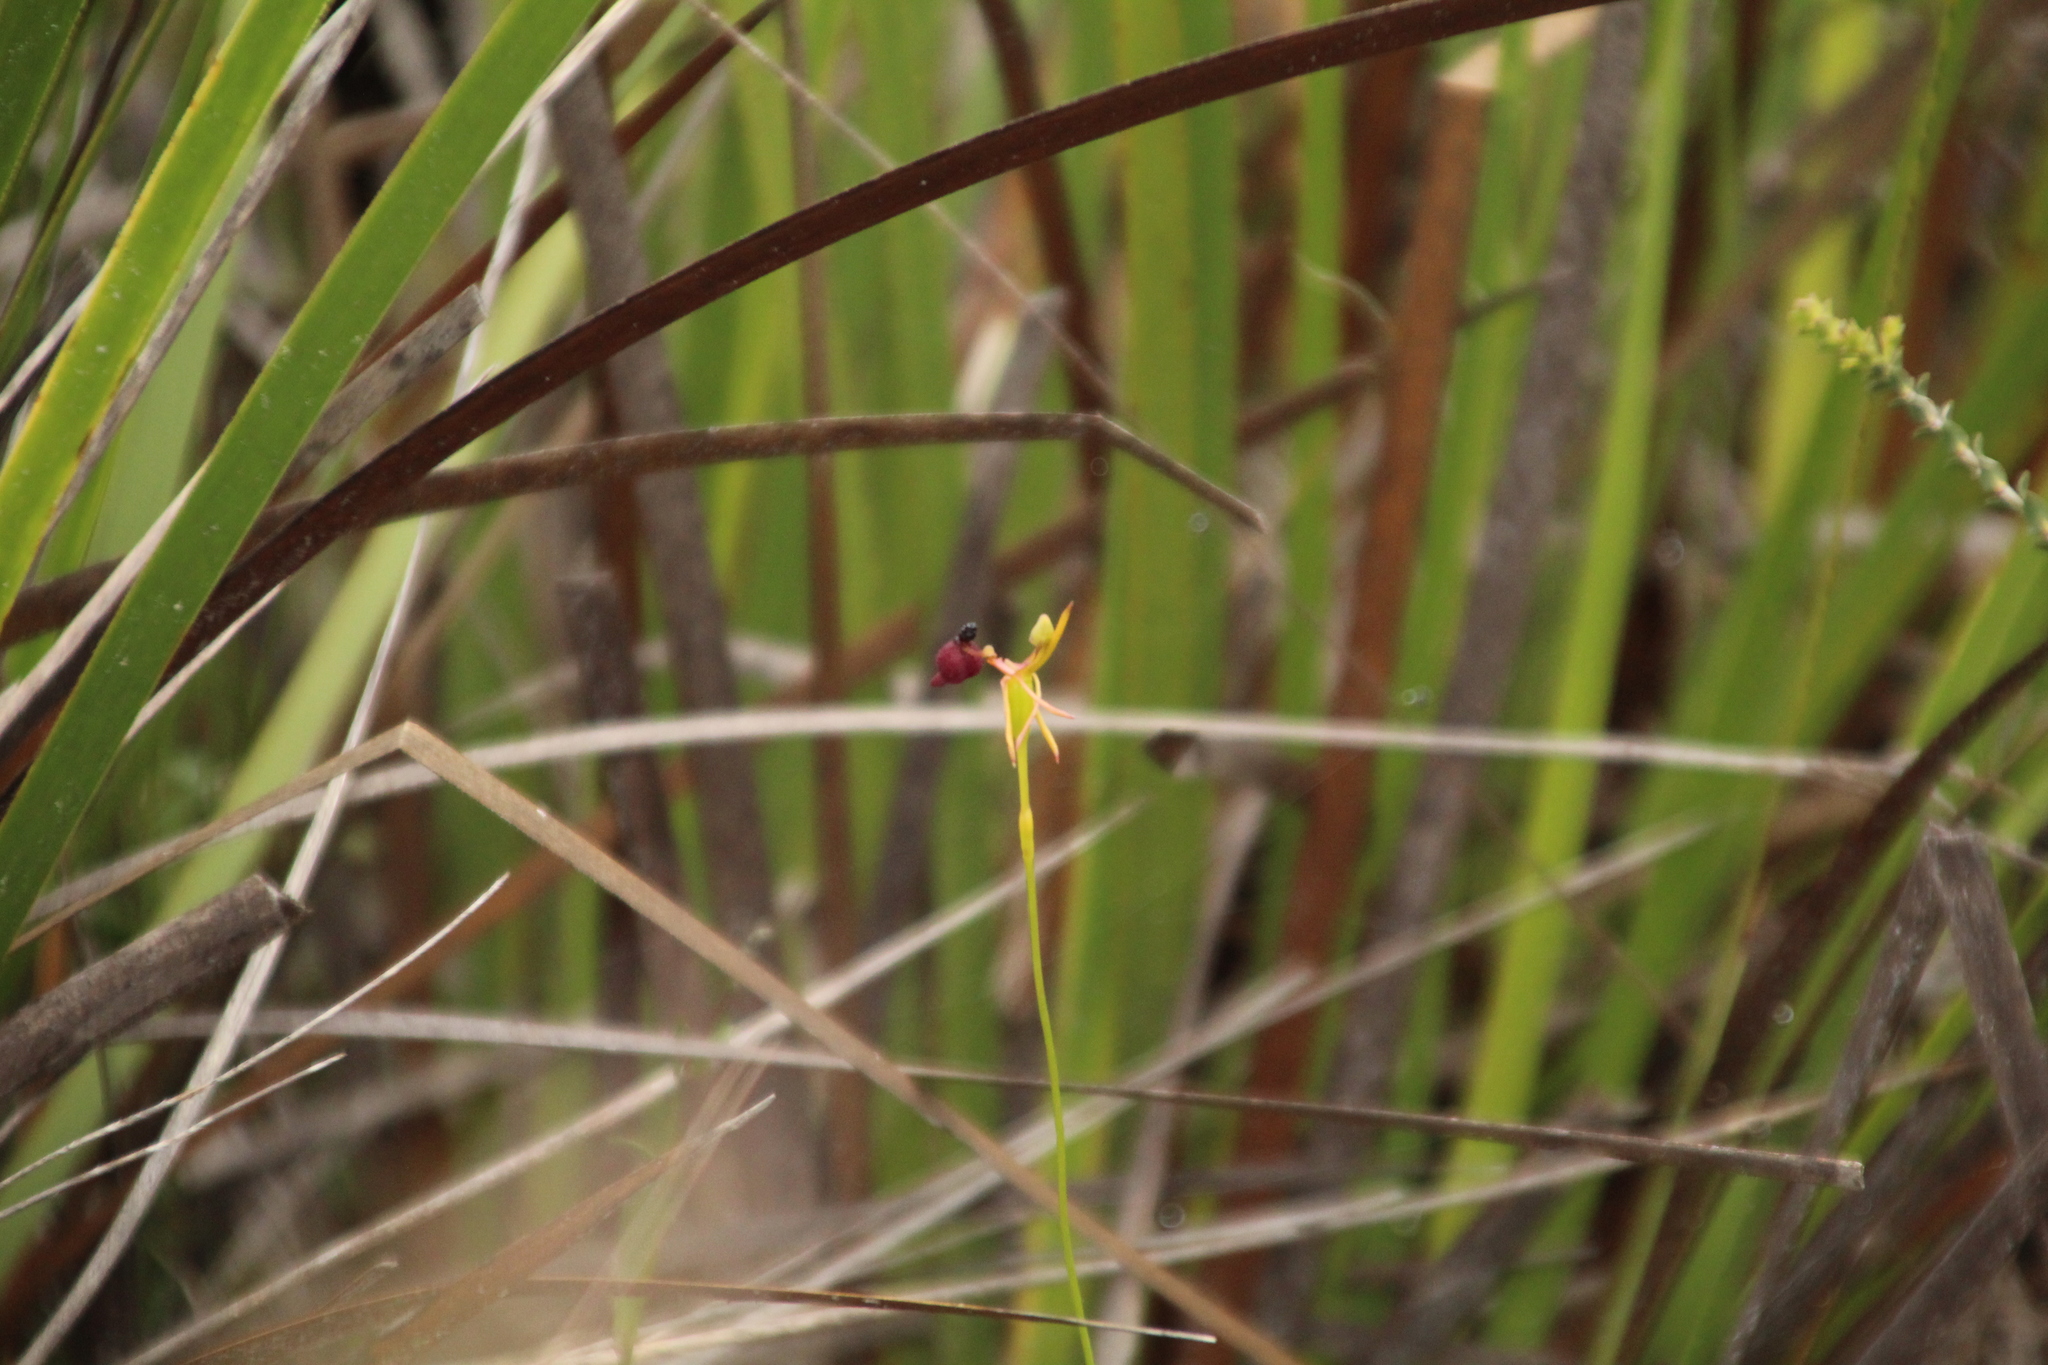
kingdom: Plantae
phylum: Tracheophyta
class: Liliopsida
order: Asparagales
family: Orchidaceae
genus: Drakaea
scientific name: Drakaea glyptodon
